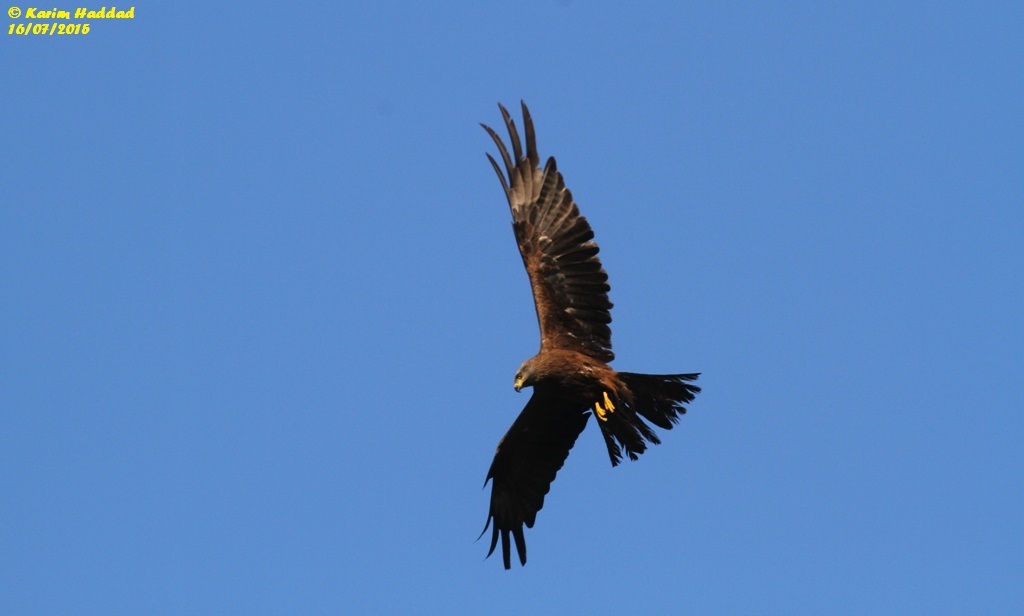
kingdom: Animalia
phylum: Chordata
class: Aves
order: Accipitriformes
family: Accipitridae
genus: Milvus
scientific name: Milvus migrans
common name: Black kite
